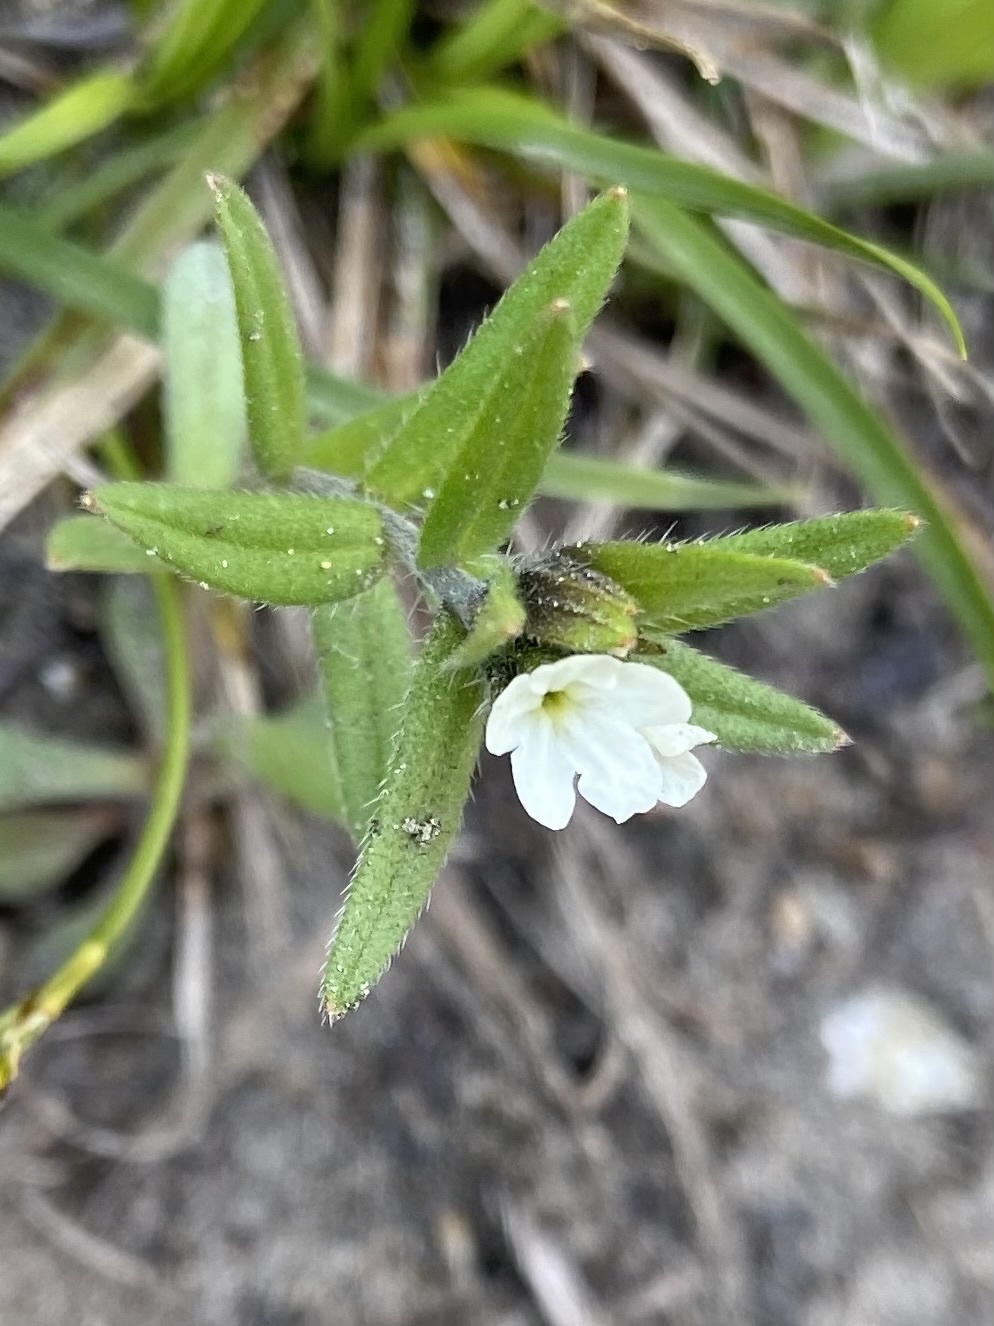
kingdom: Plantae
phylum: Tracheophyta
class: Magnoliopsida
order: Boraginales
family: Boraginaceae
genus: Buglossoides
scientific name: Buglossoides arvensis
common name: Corn gromwell
